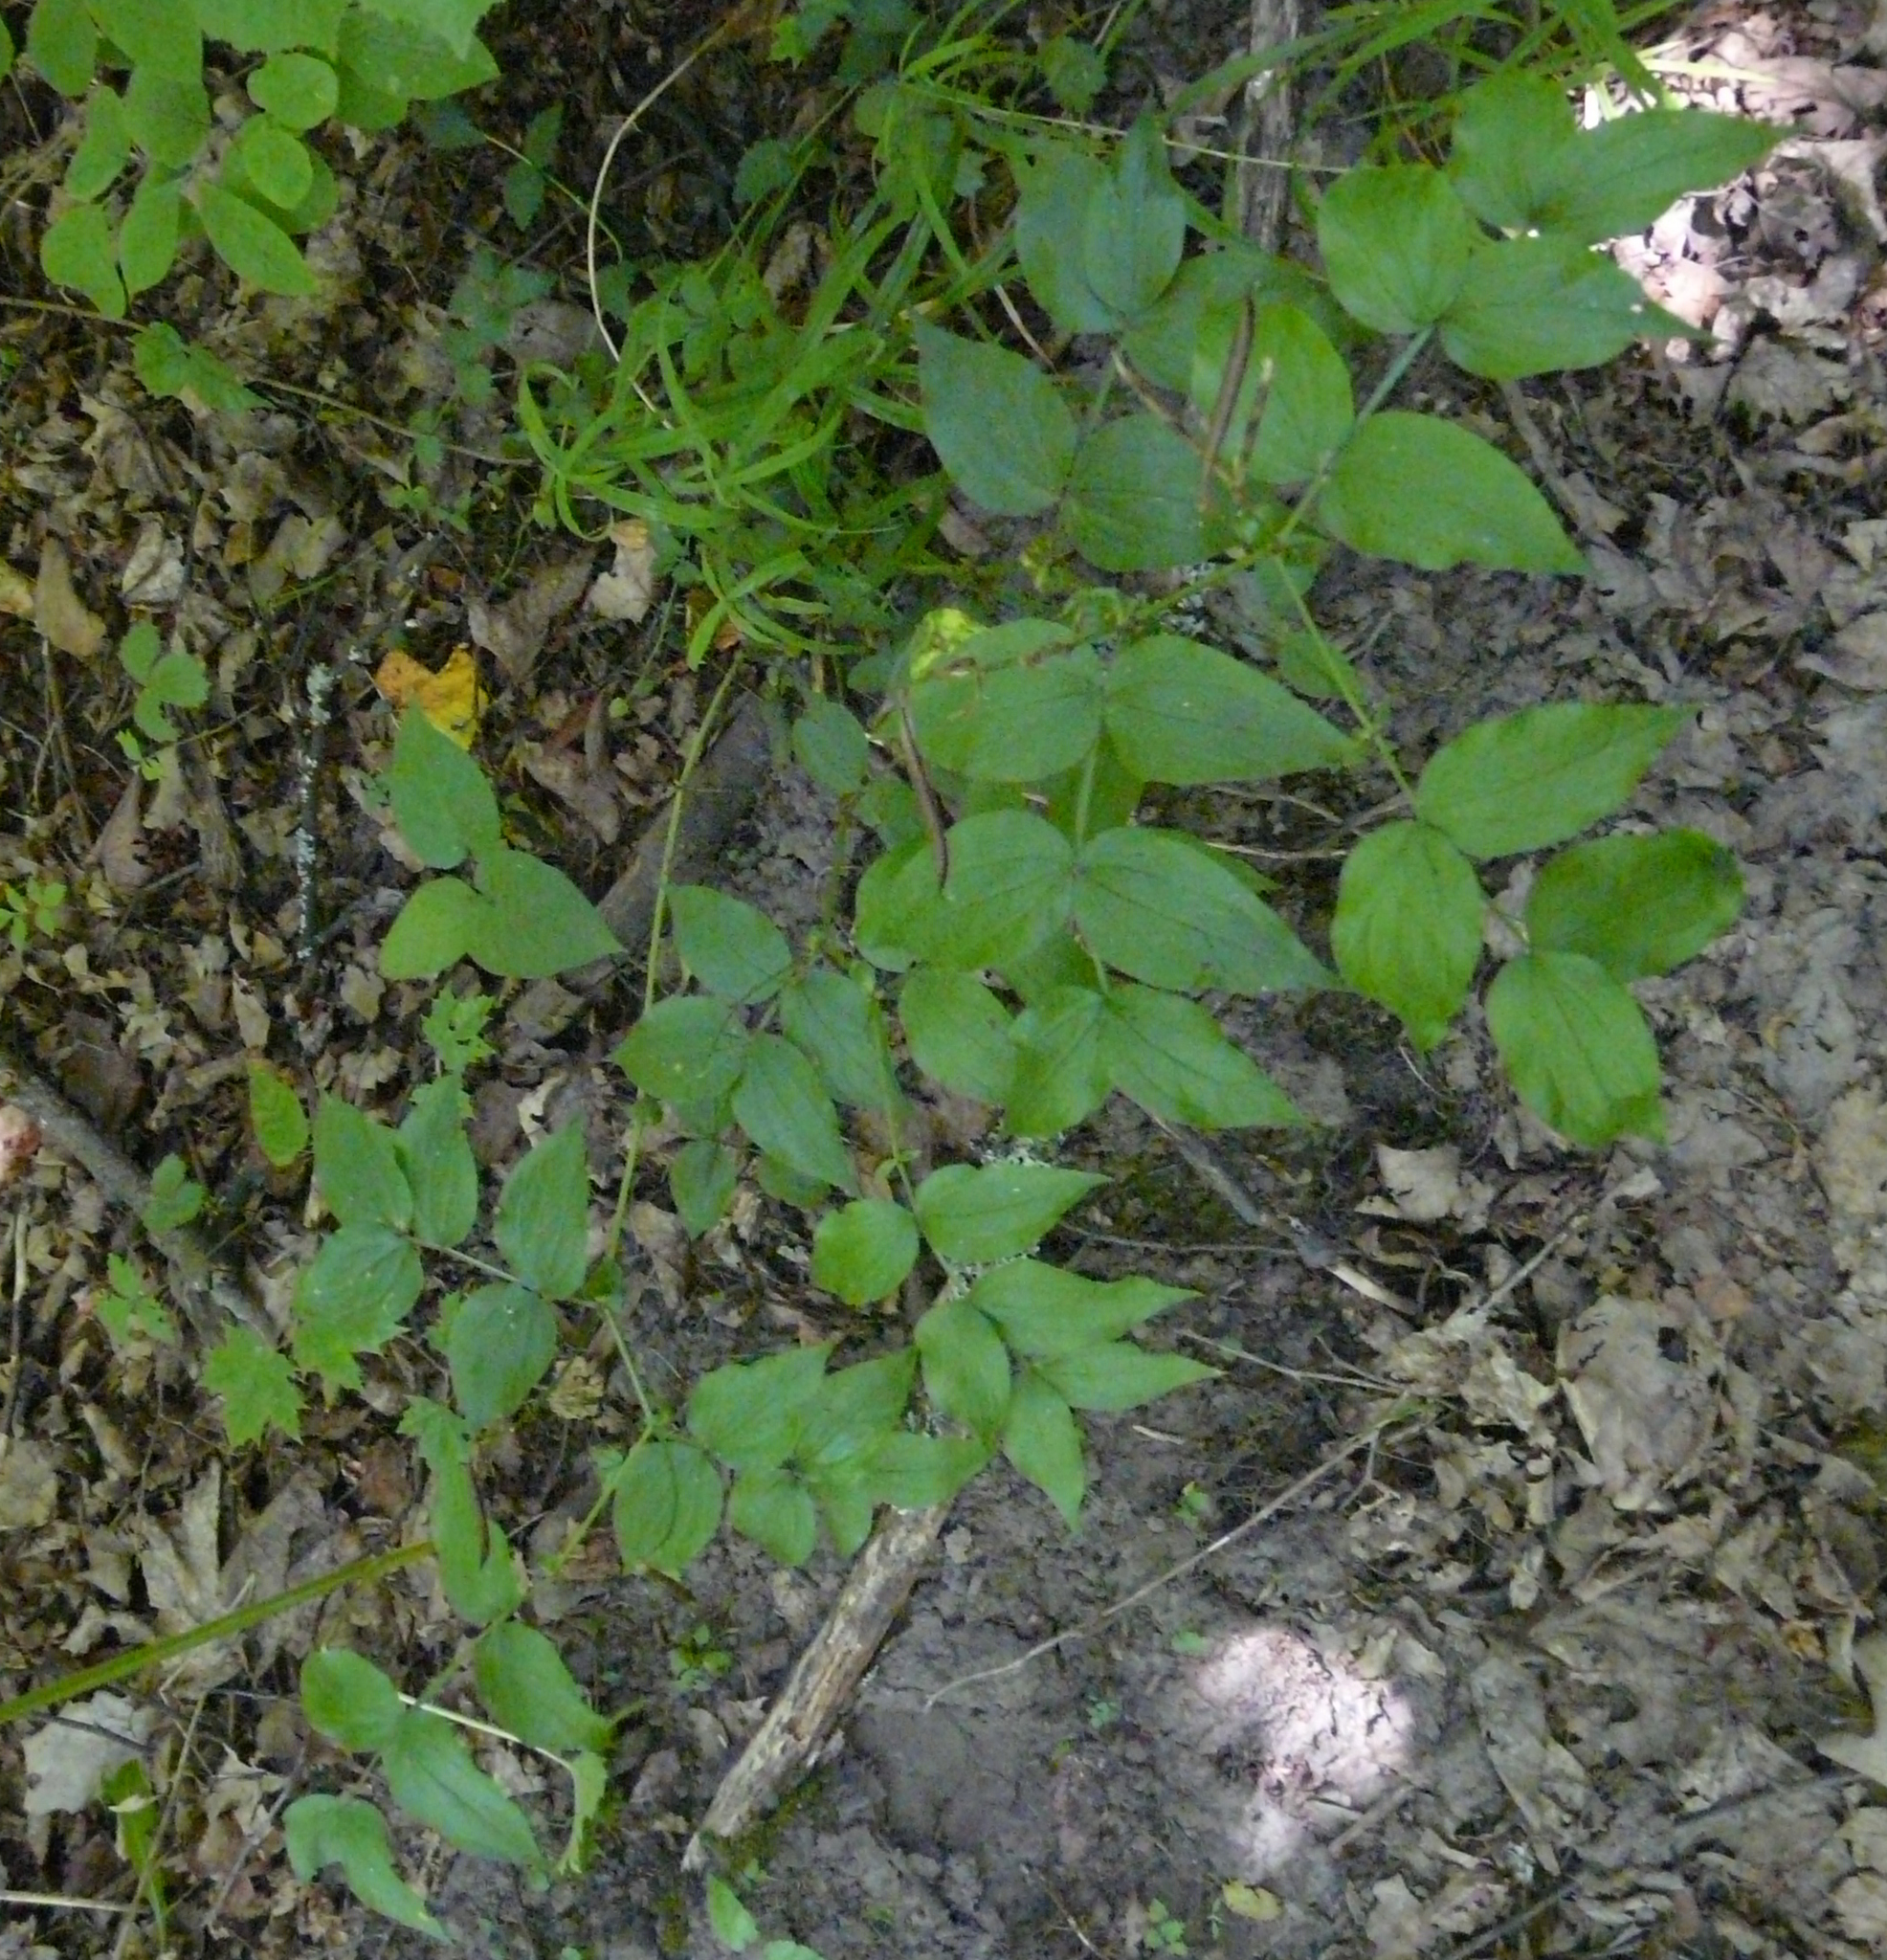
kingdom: Plantae
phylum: Tracheophyta
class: Magnoliopsida
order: Fabales
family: Fabaceae
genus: Lathyrus
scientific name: Lathyrus vernus
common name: Spring pea
